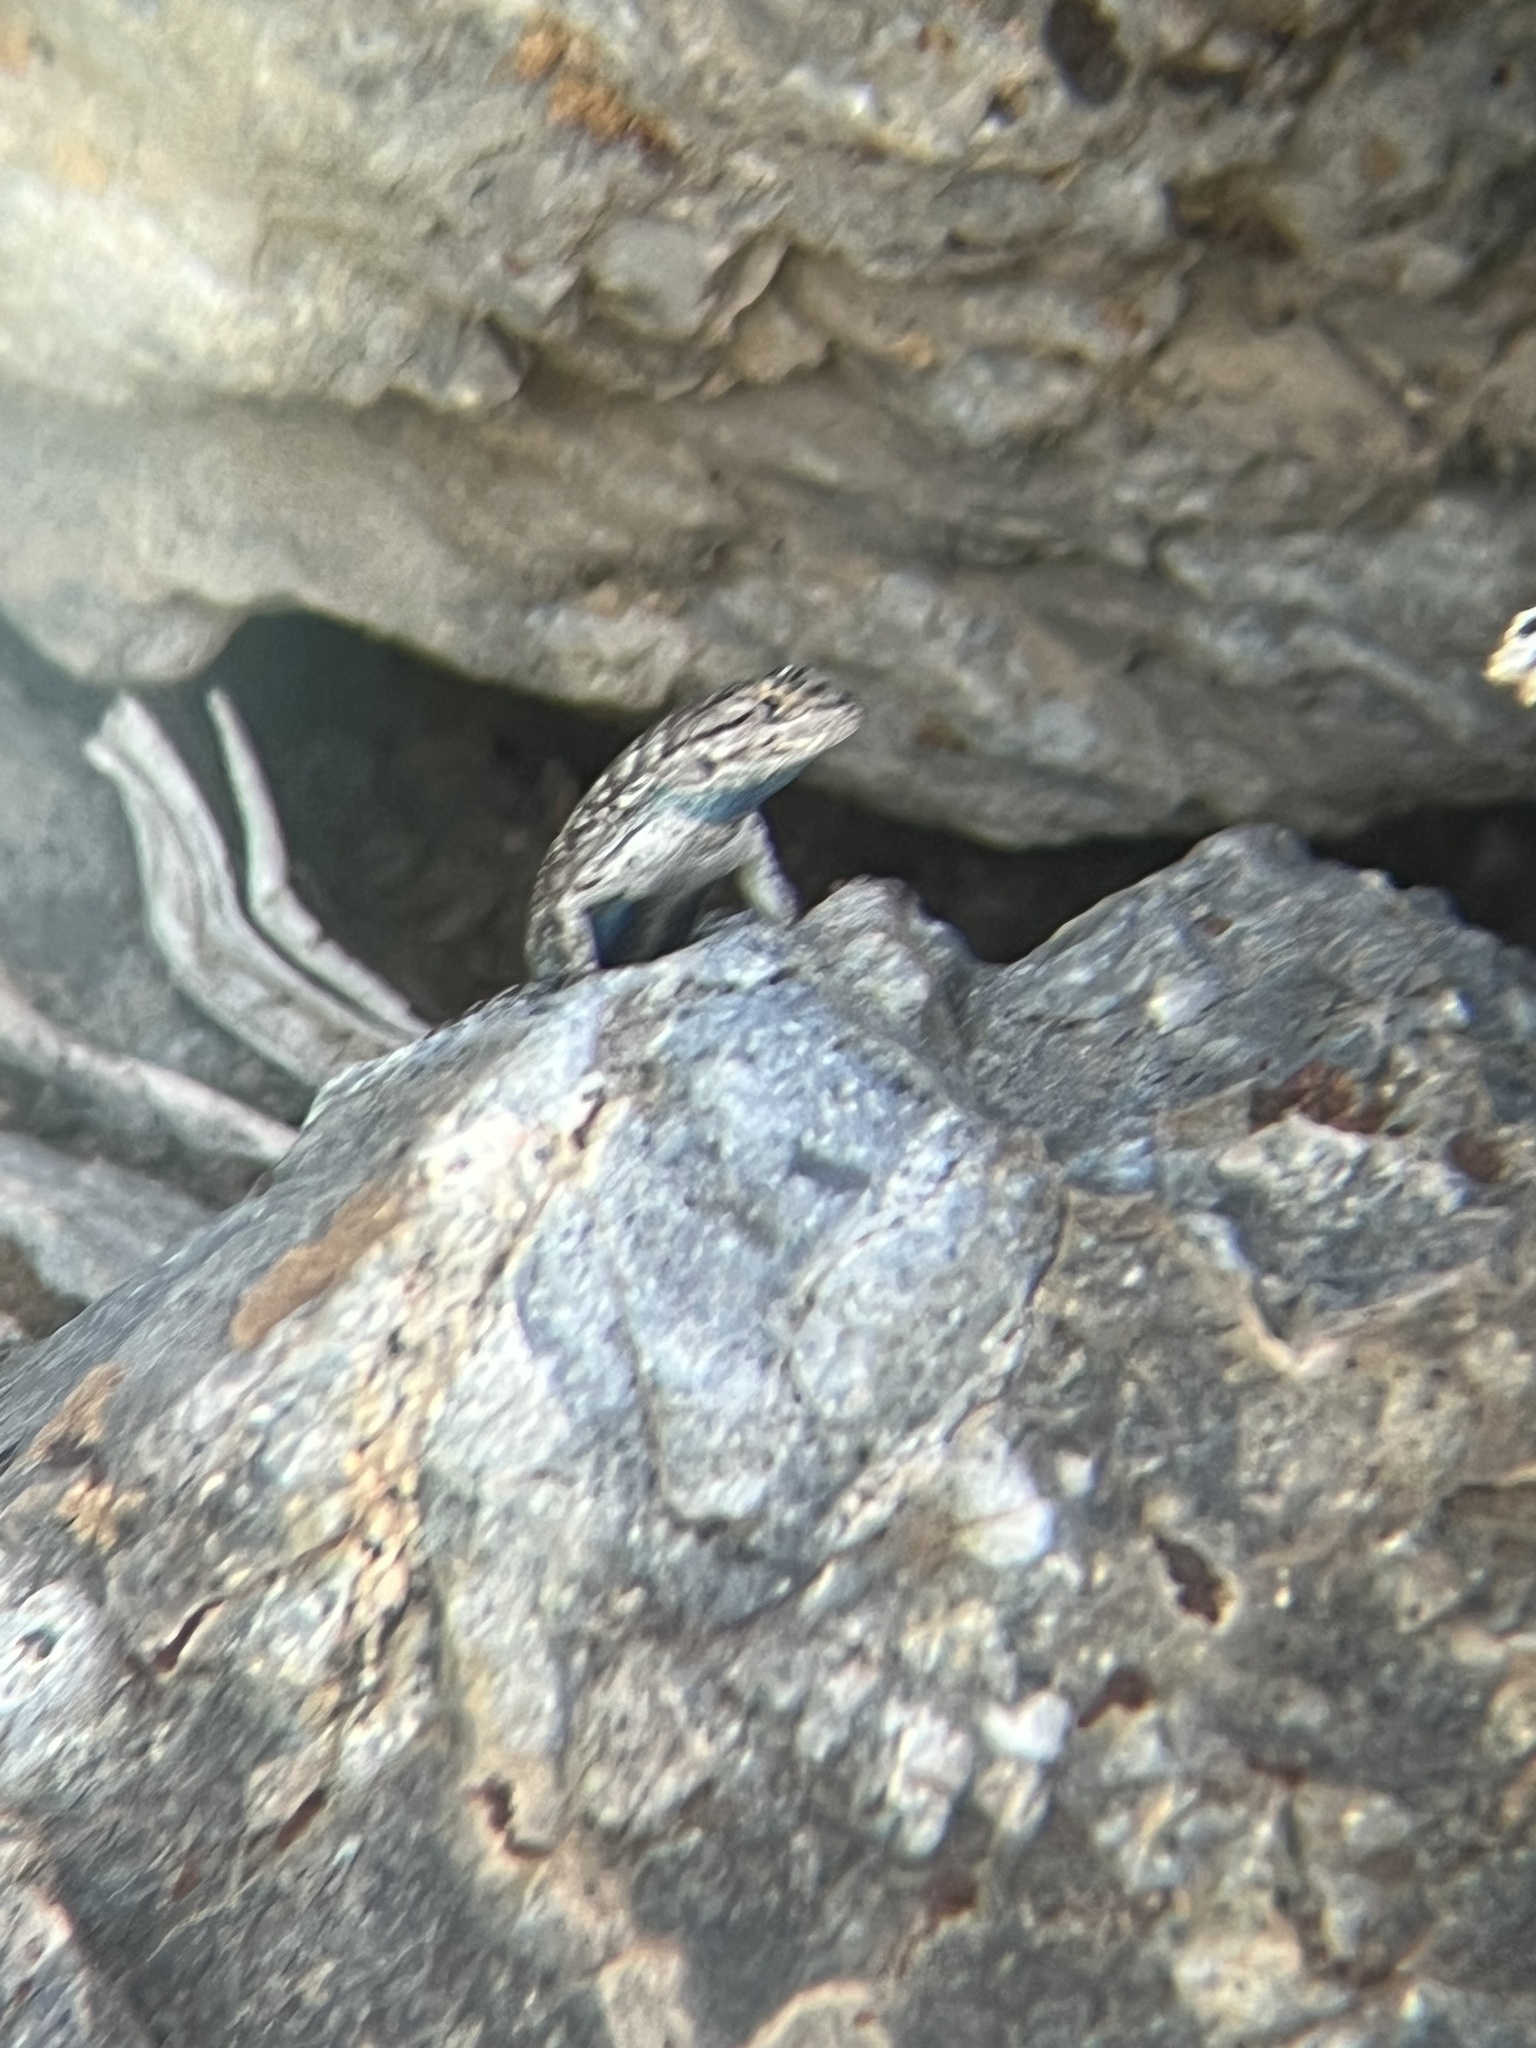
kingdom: Animalia
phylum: Chordata
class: Squamata
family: Phrynosomatidae
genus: Sceloporus
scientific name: Sceloporus occidentalis
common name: Western fence lizard
